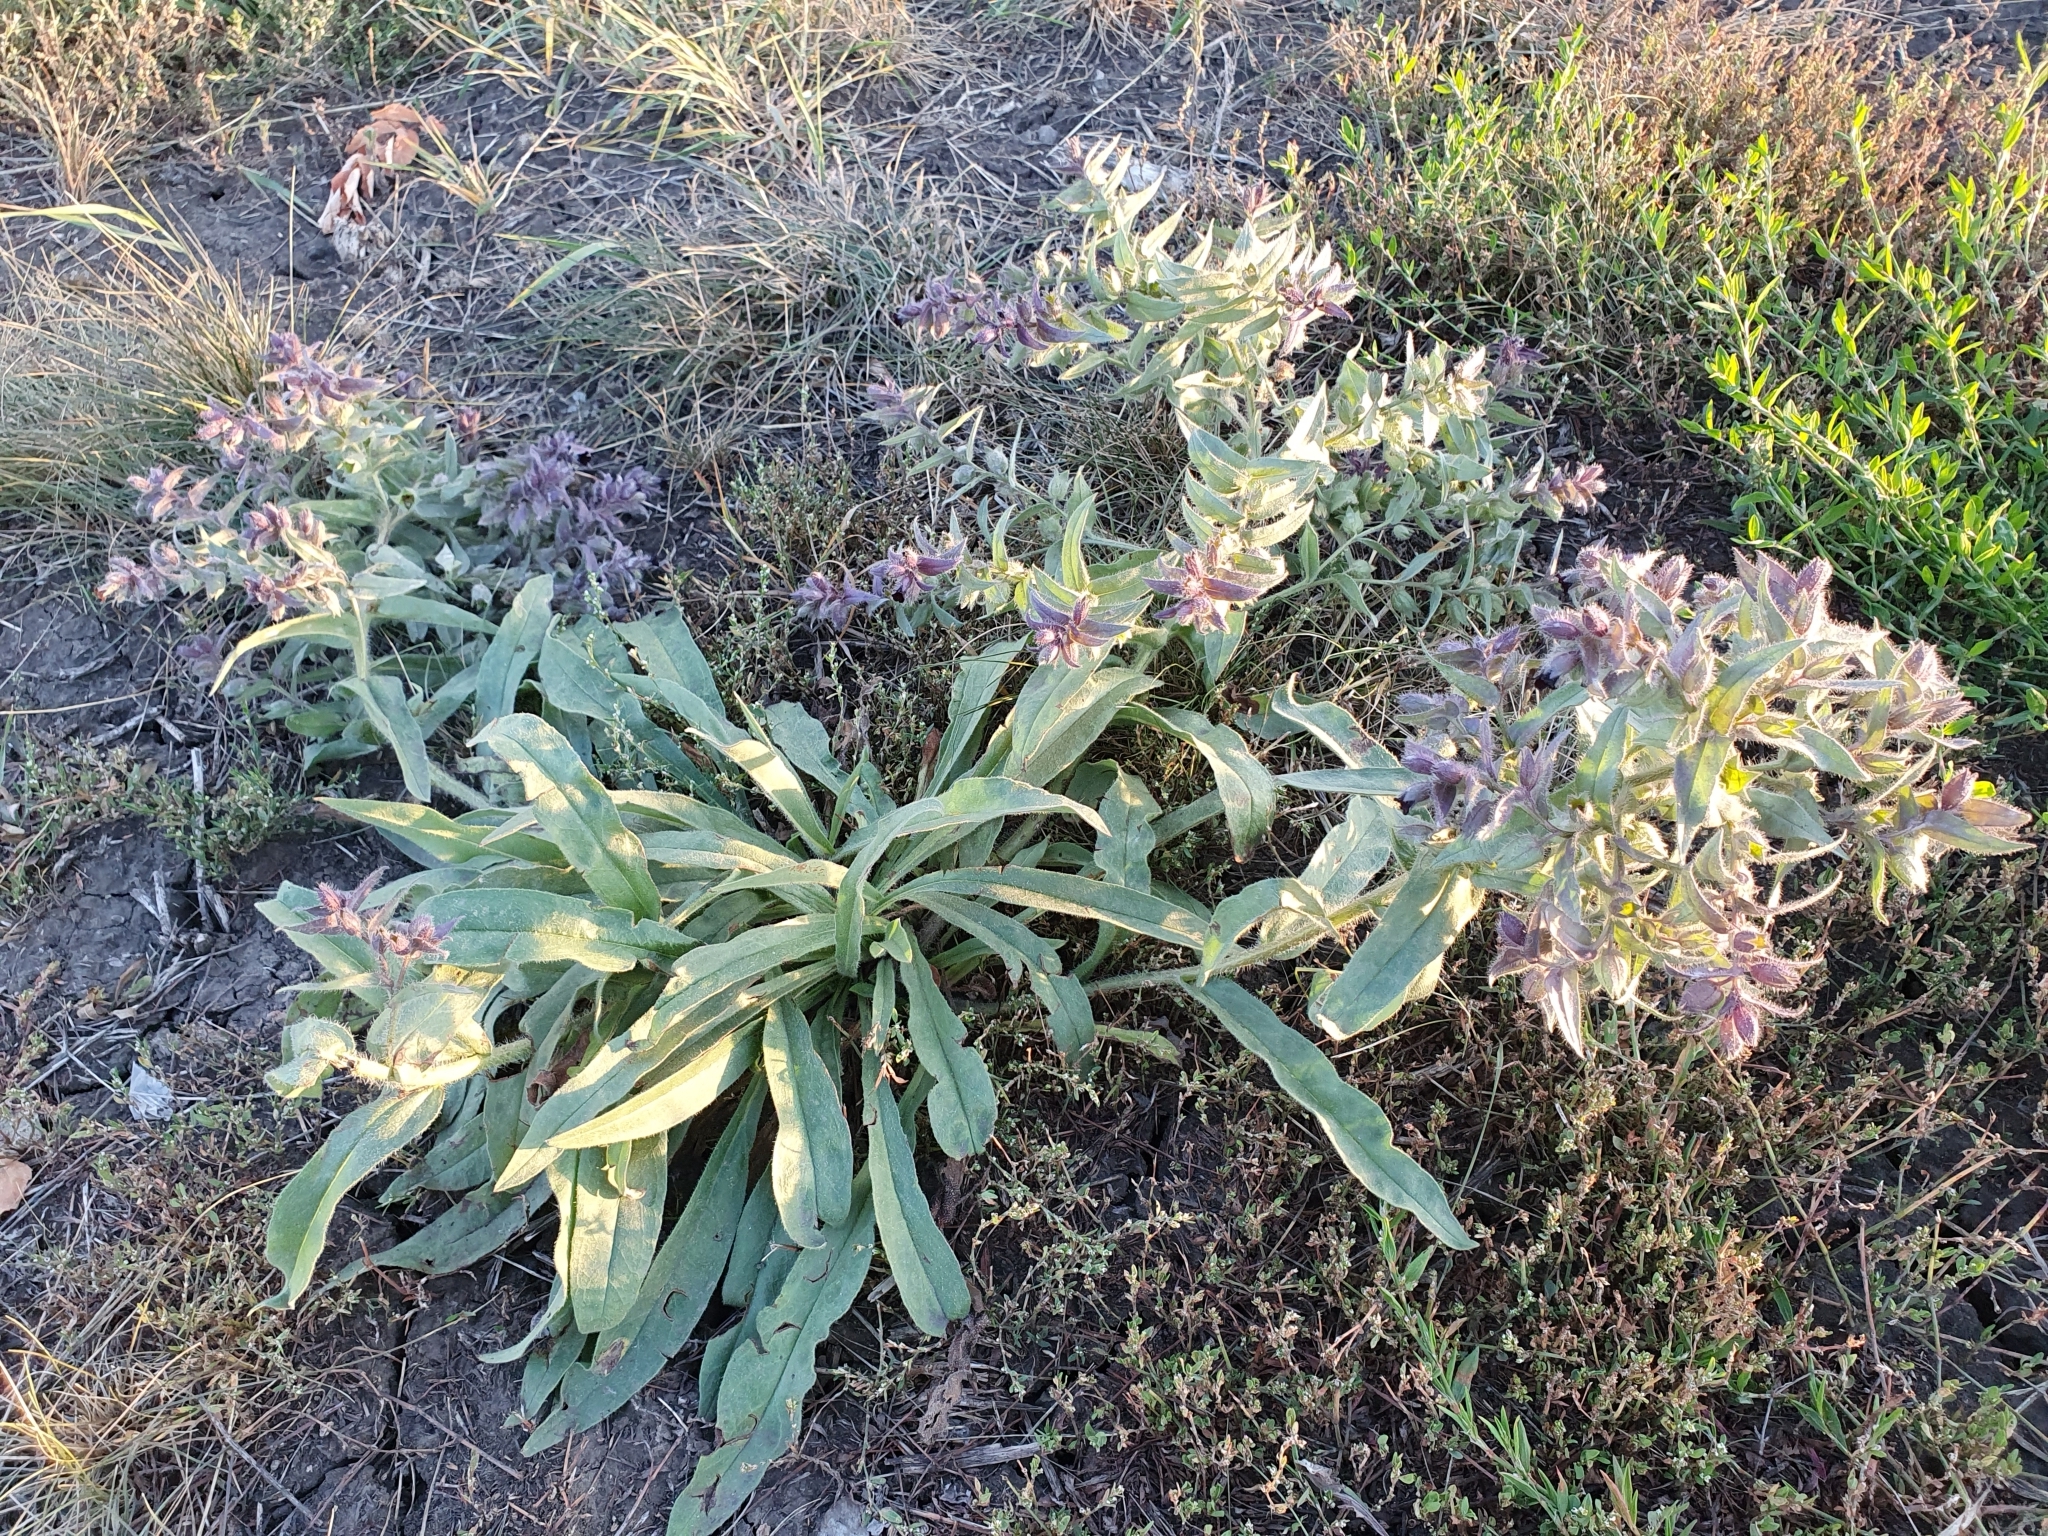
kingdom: Plantae
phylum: Tracheophyta
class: Magnoliopsida
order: Boraginales
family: Boraginaceae
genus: Nonea
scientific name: Nonea pulla
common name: Brown nonea
